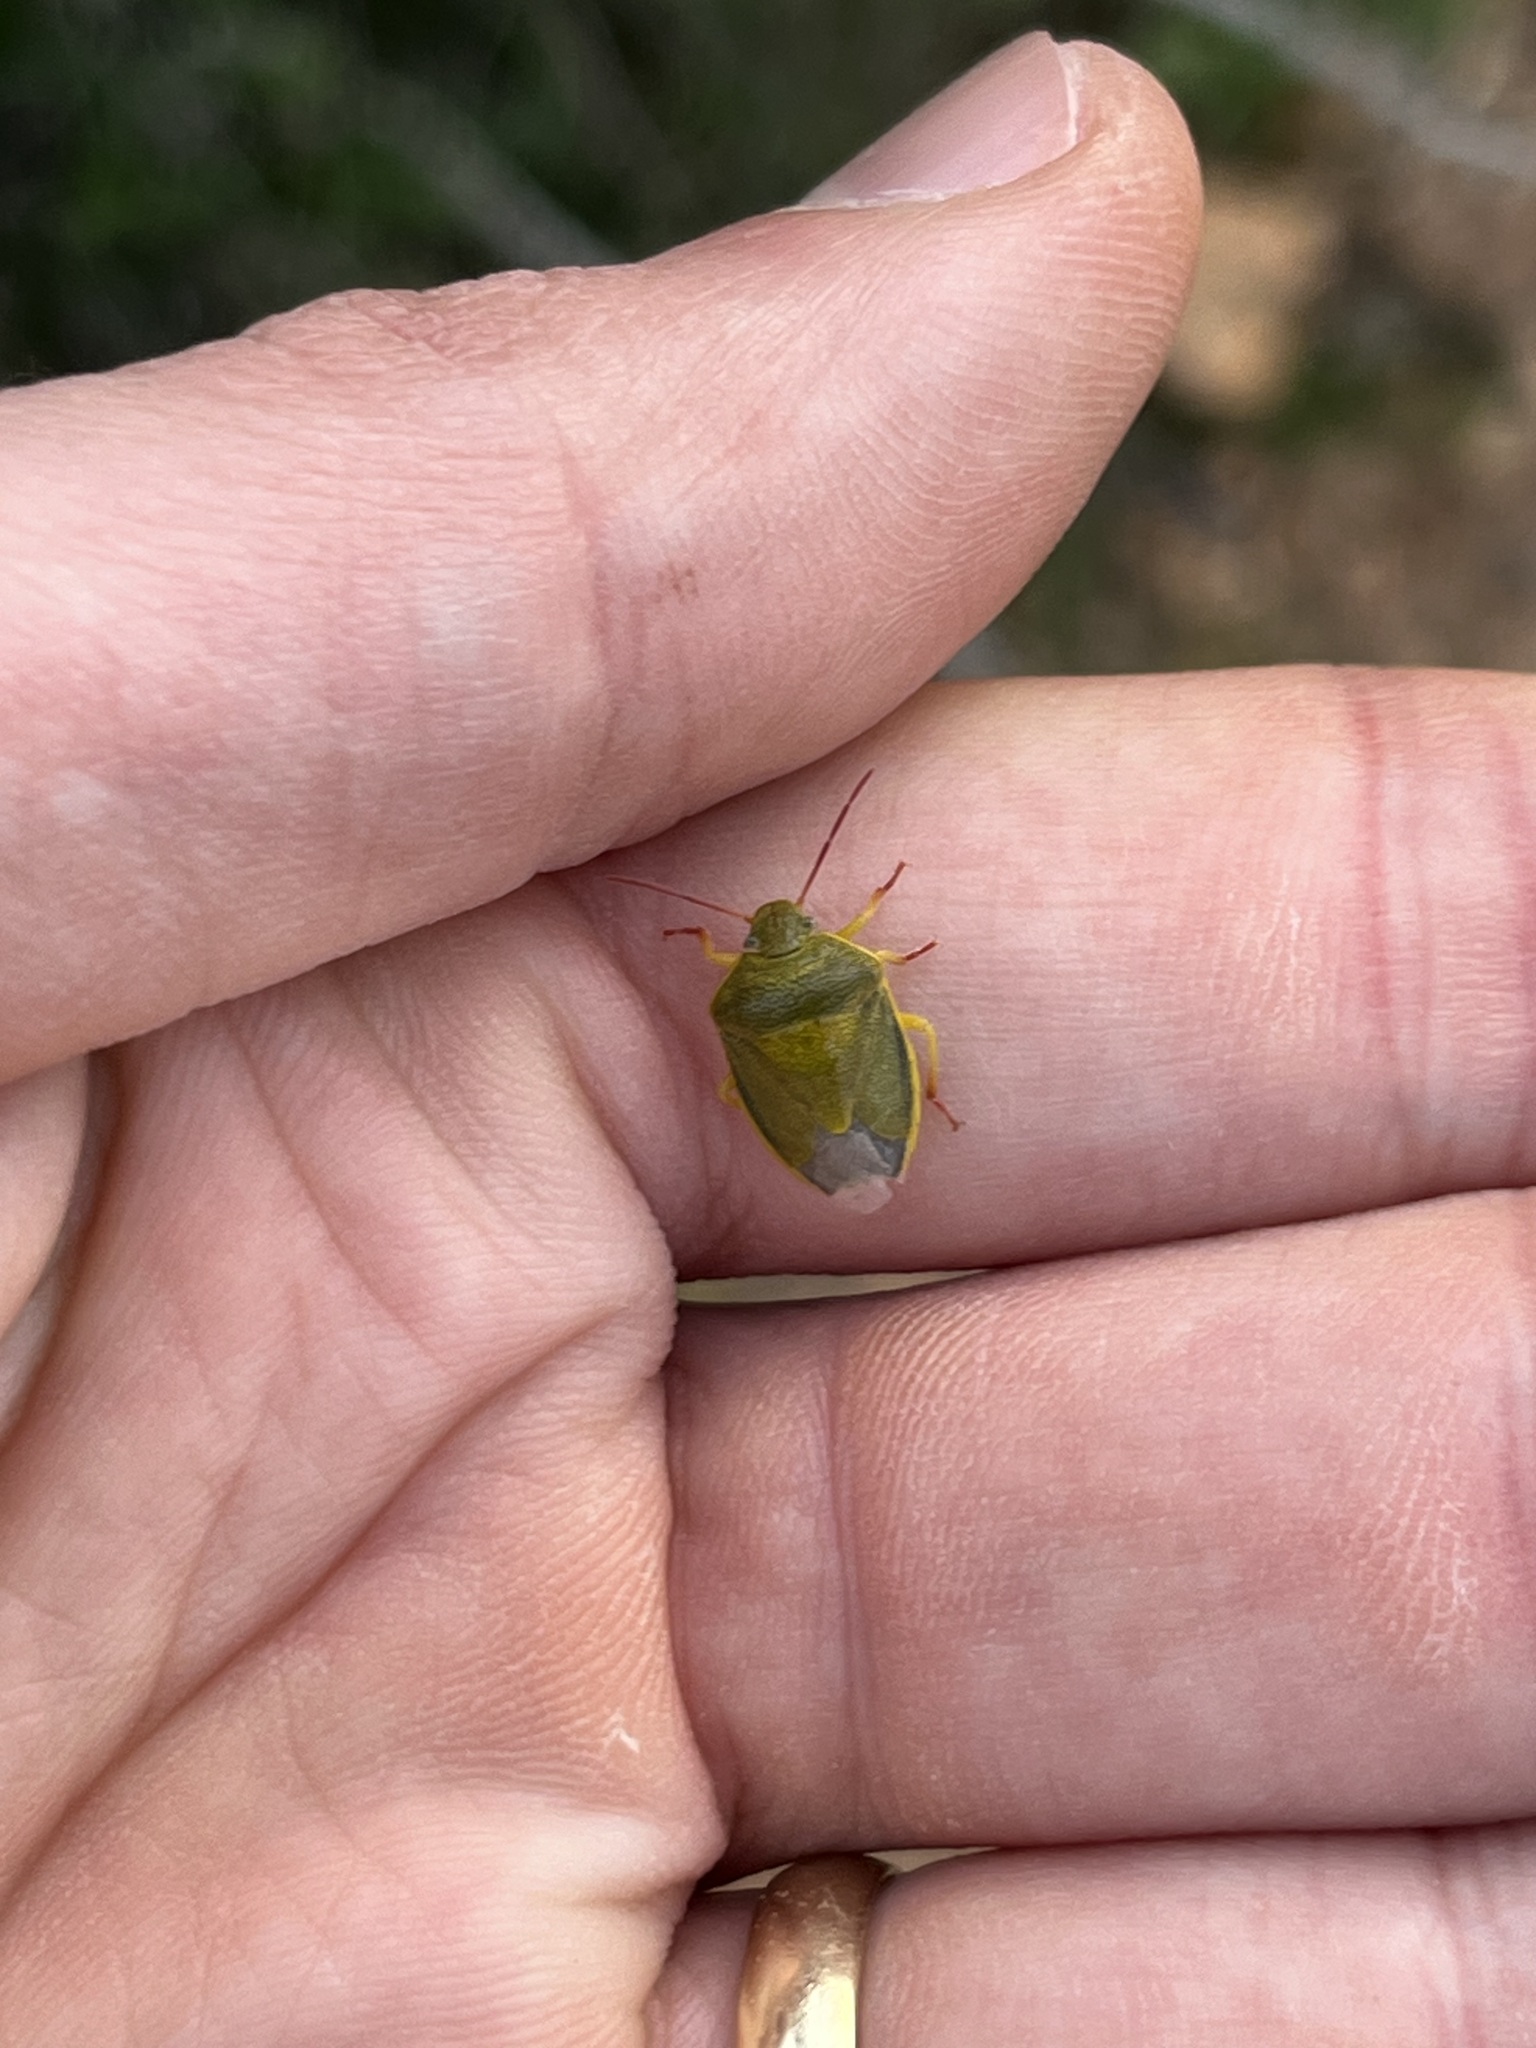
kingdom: Animalia
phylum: Arthropoda
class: Insecta
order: Hemiptera
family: Pentatomidae
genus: Piezodorus
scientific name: Piezodorus lituratus
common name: Stink bug
